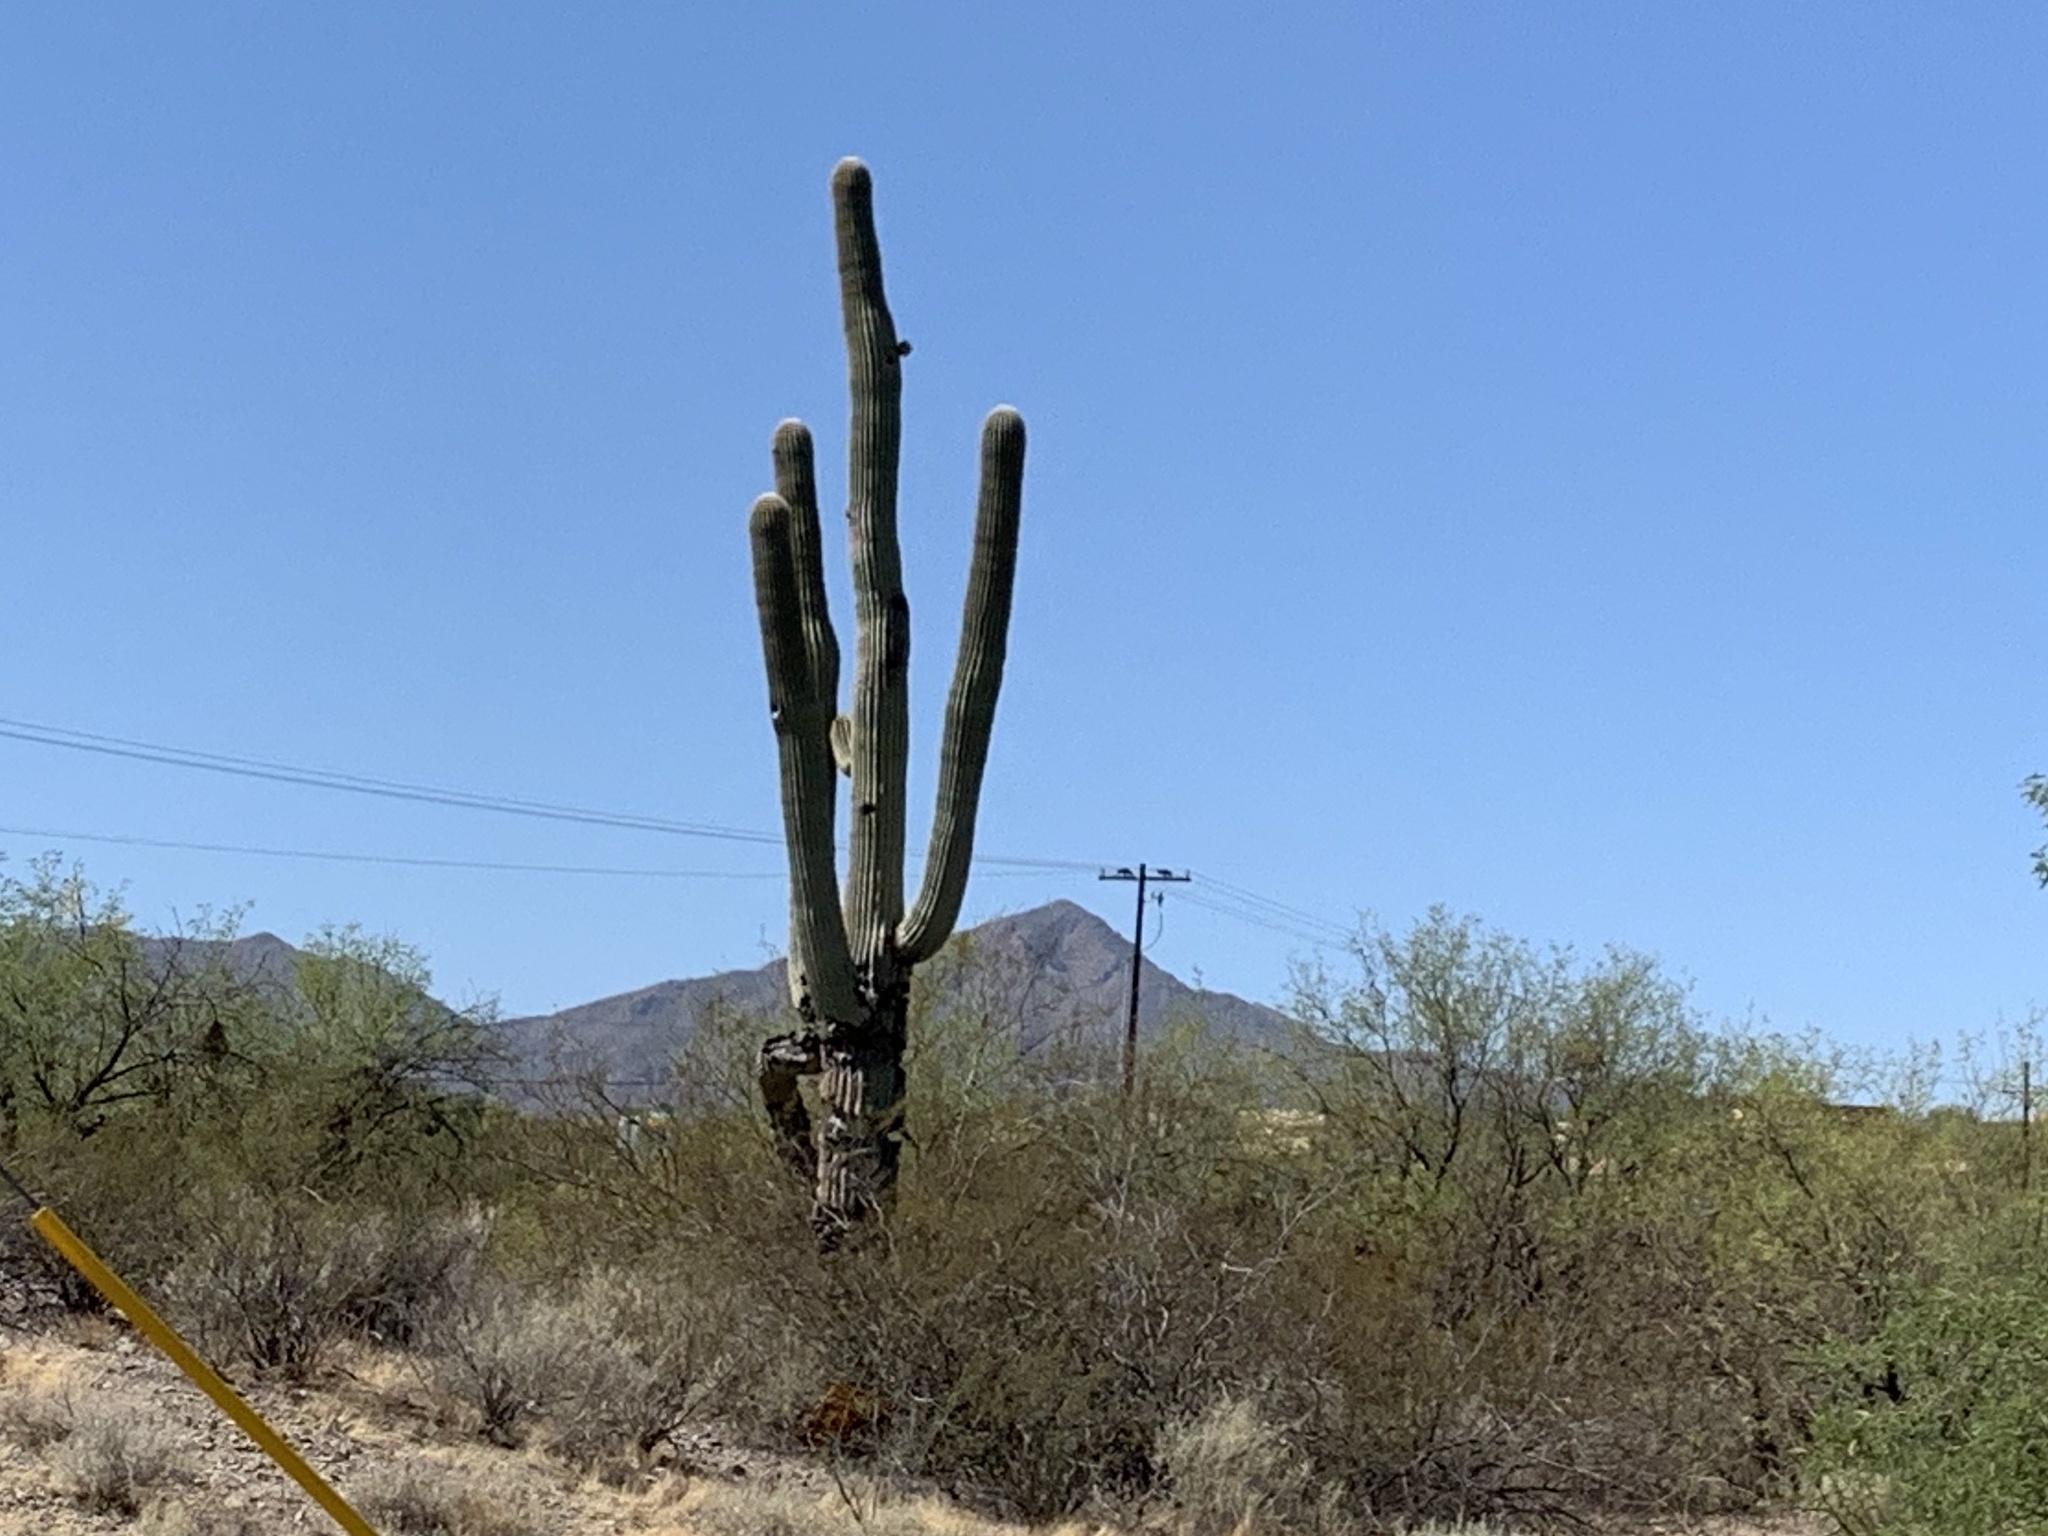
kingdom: Plantae
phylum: Tracheophyta
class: Magnoliopsida
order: Caryophyllales
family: Cactaceae
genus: Carnegiea
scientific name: Carnegiea gigantea
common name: Saguaro
